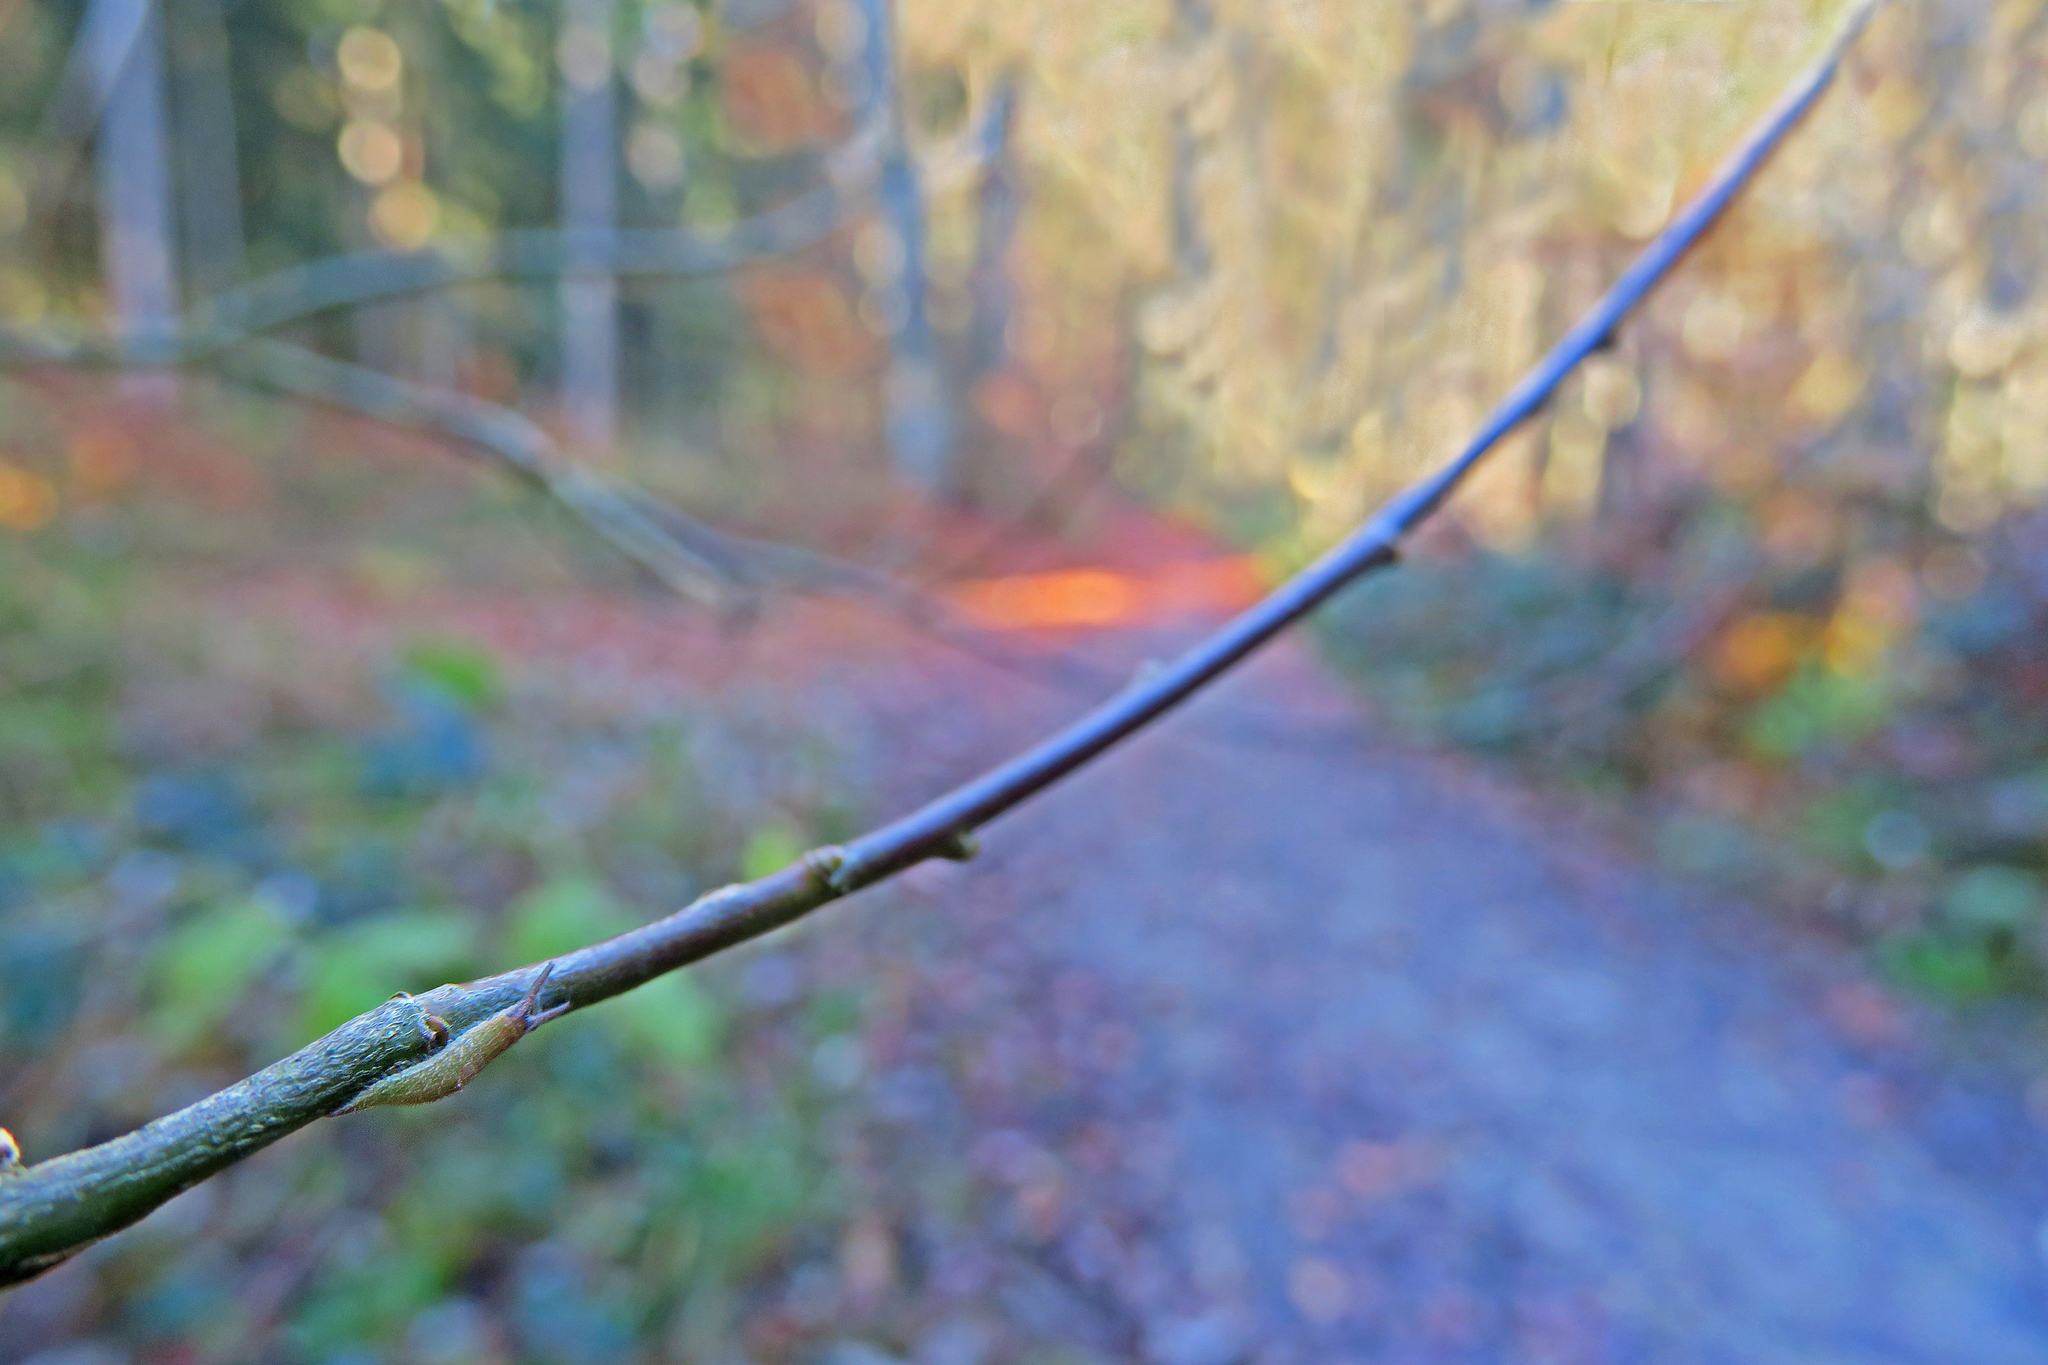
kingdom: Animalia
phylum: Arthropoda
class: Insecta
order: Lepidoptera
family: Nymphalidae
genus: Apatura
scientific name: Apatura iris
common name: Purple emperor
